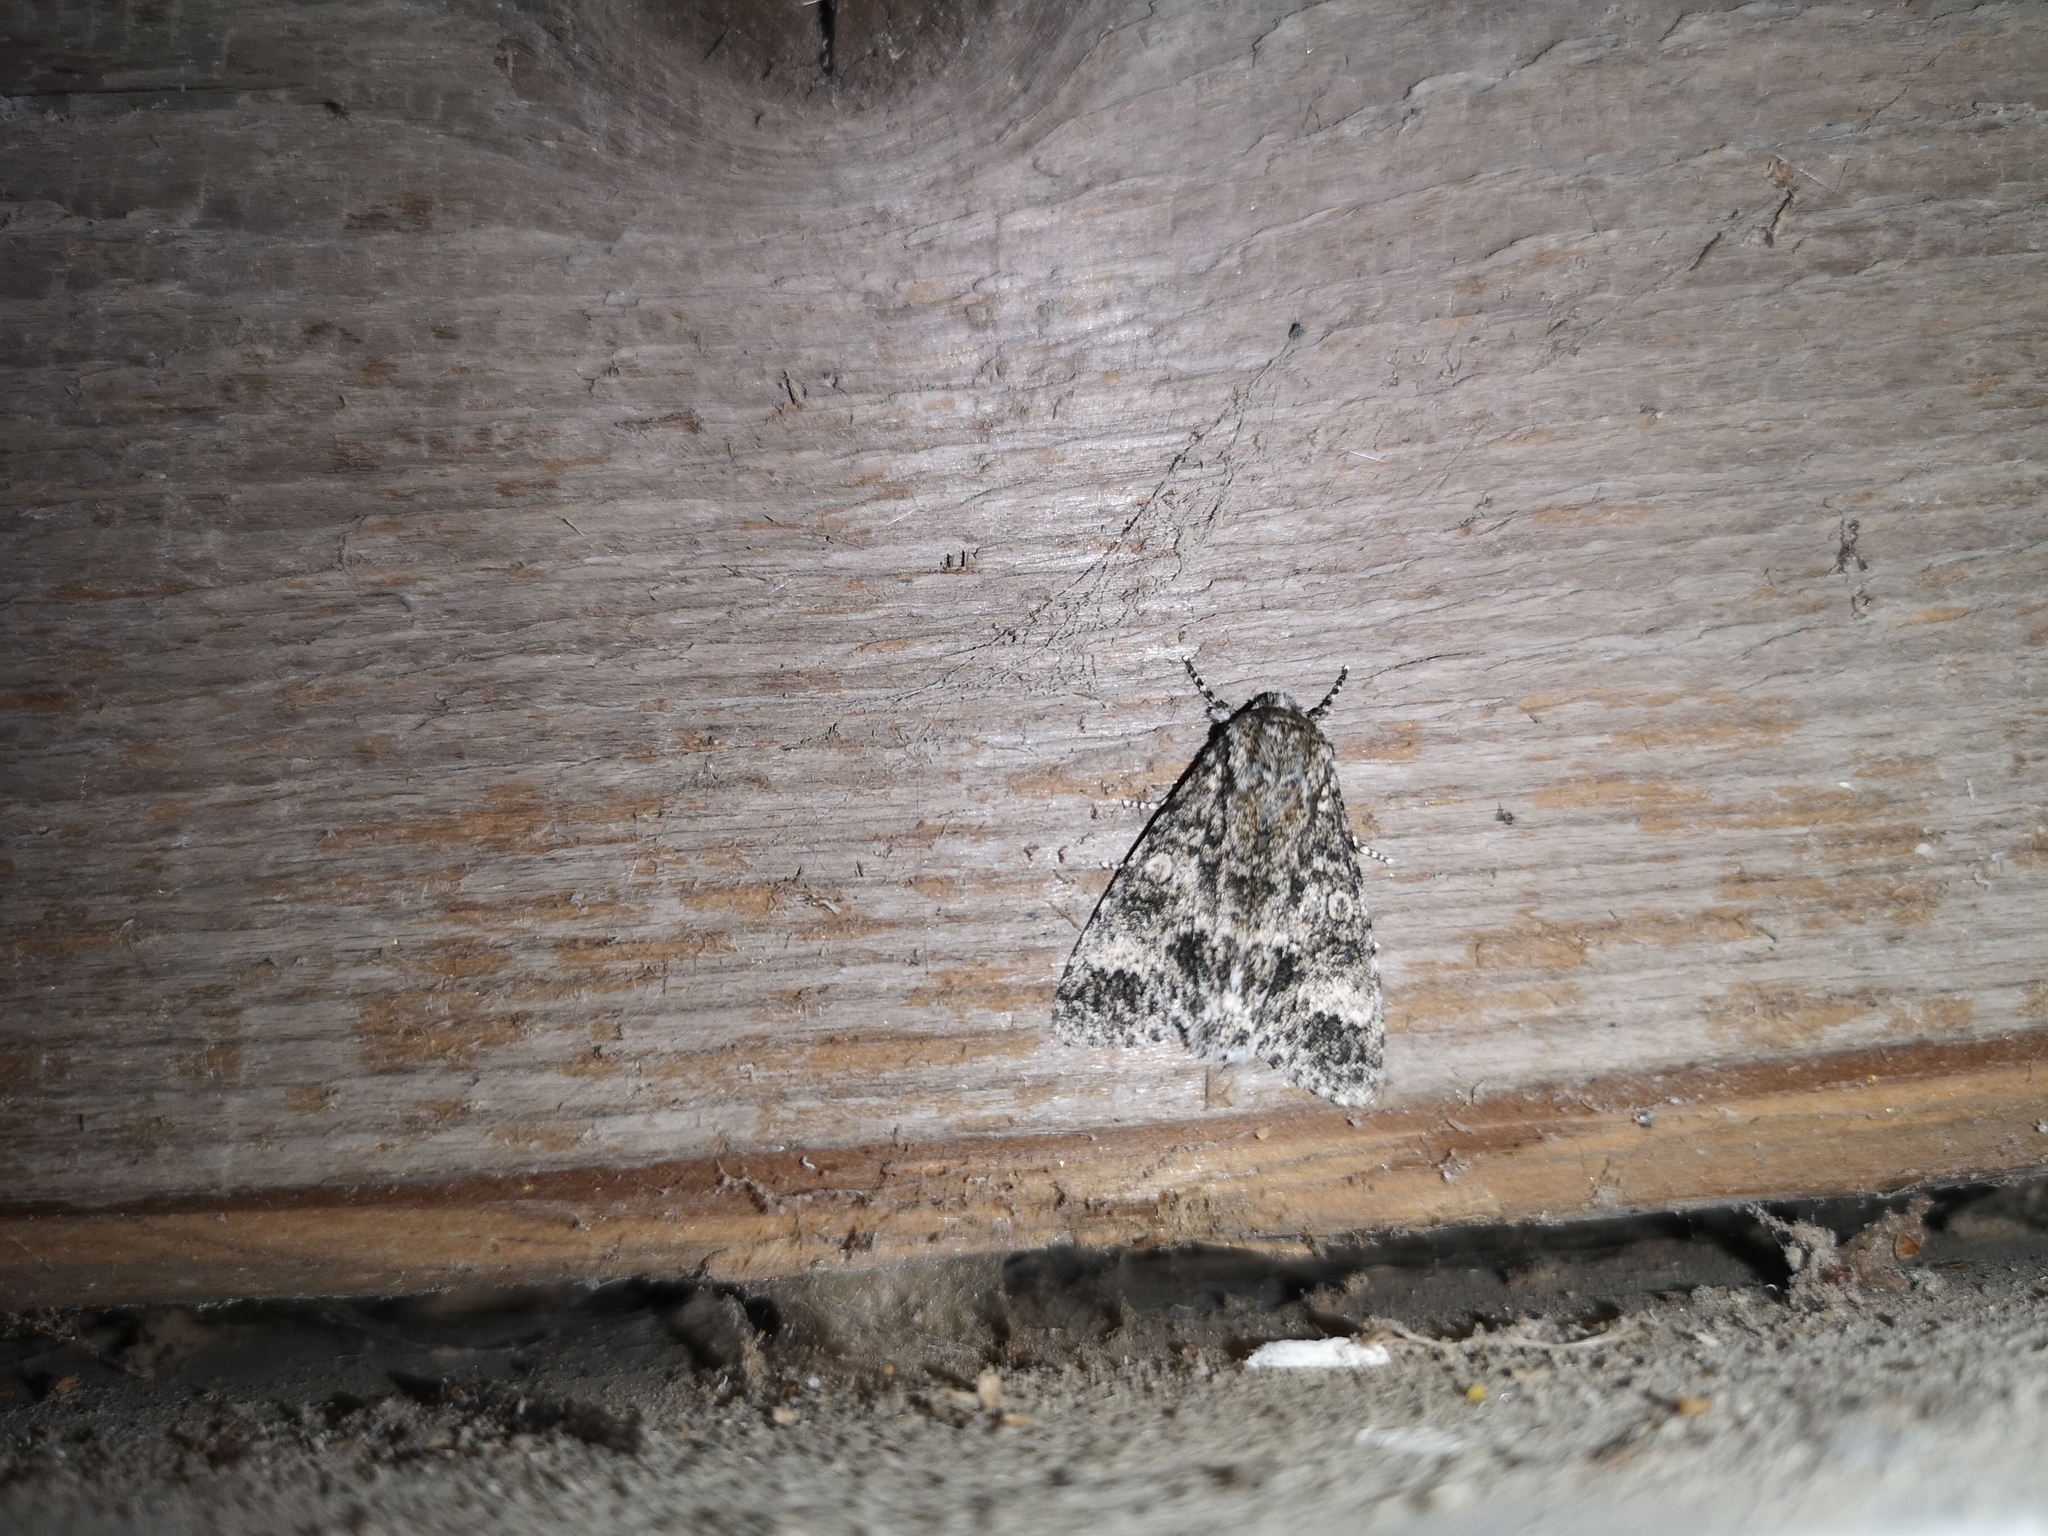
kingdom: Animalia
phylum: Arthropoda
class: Insecta
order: Lepidoptera
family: Noctuidae
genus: Acronicta
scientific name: Acronicta megacephala
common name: Poplar grey
